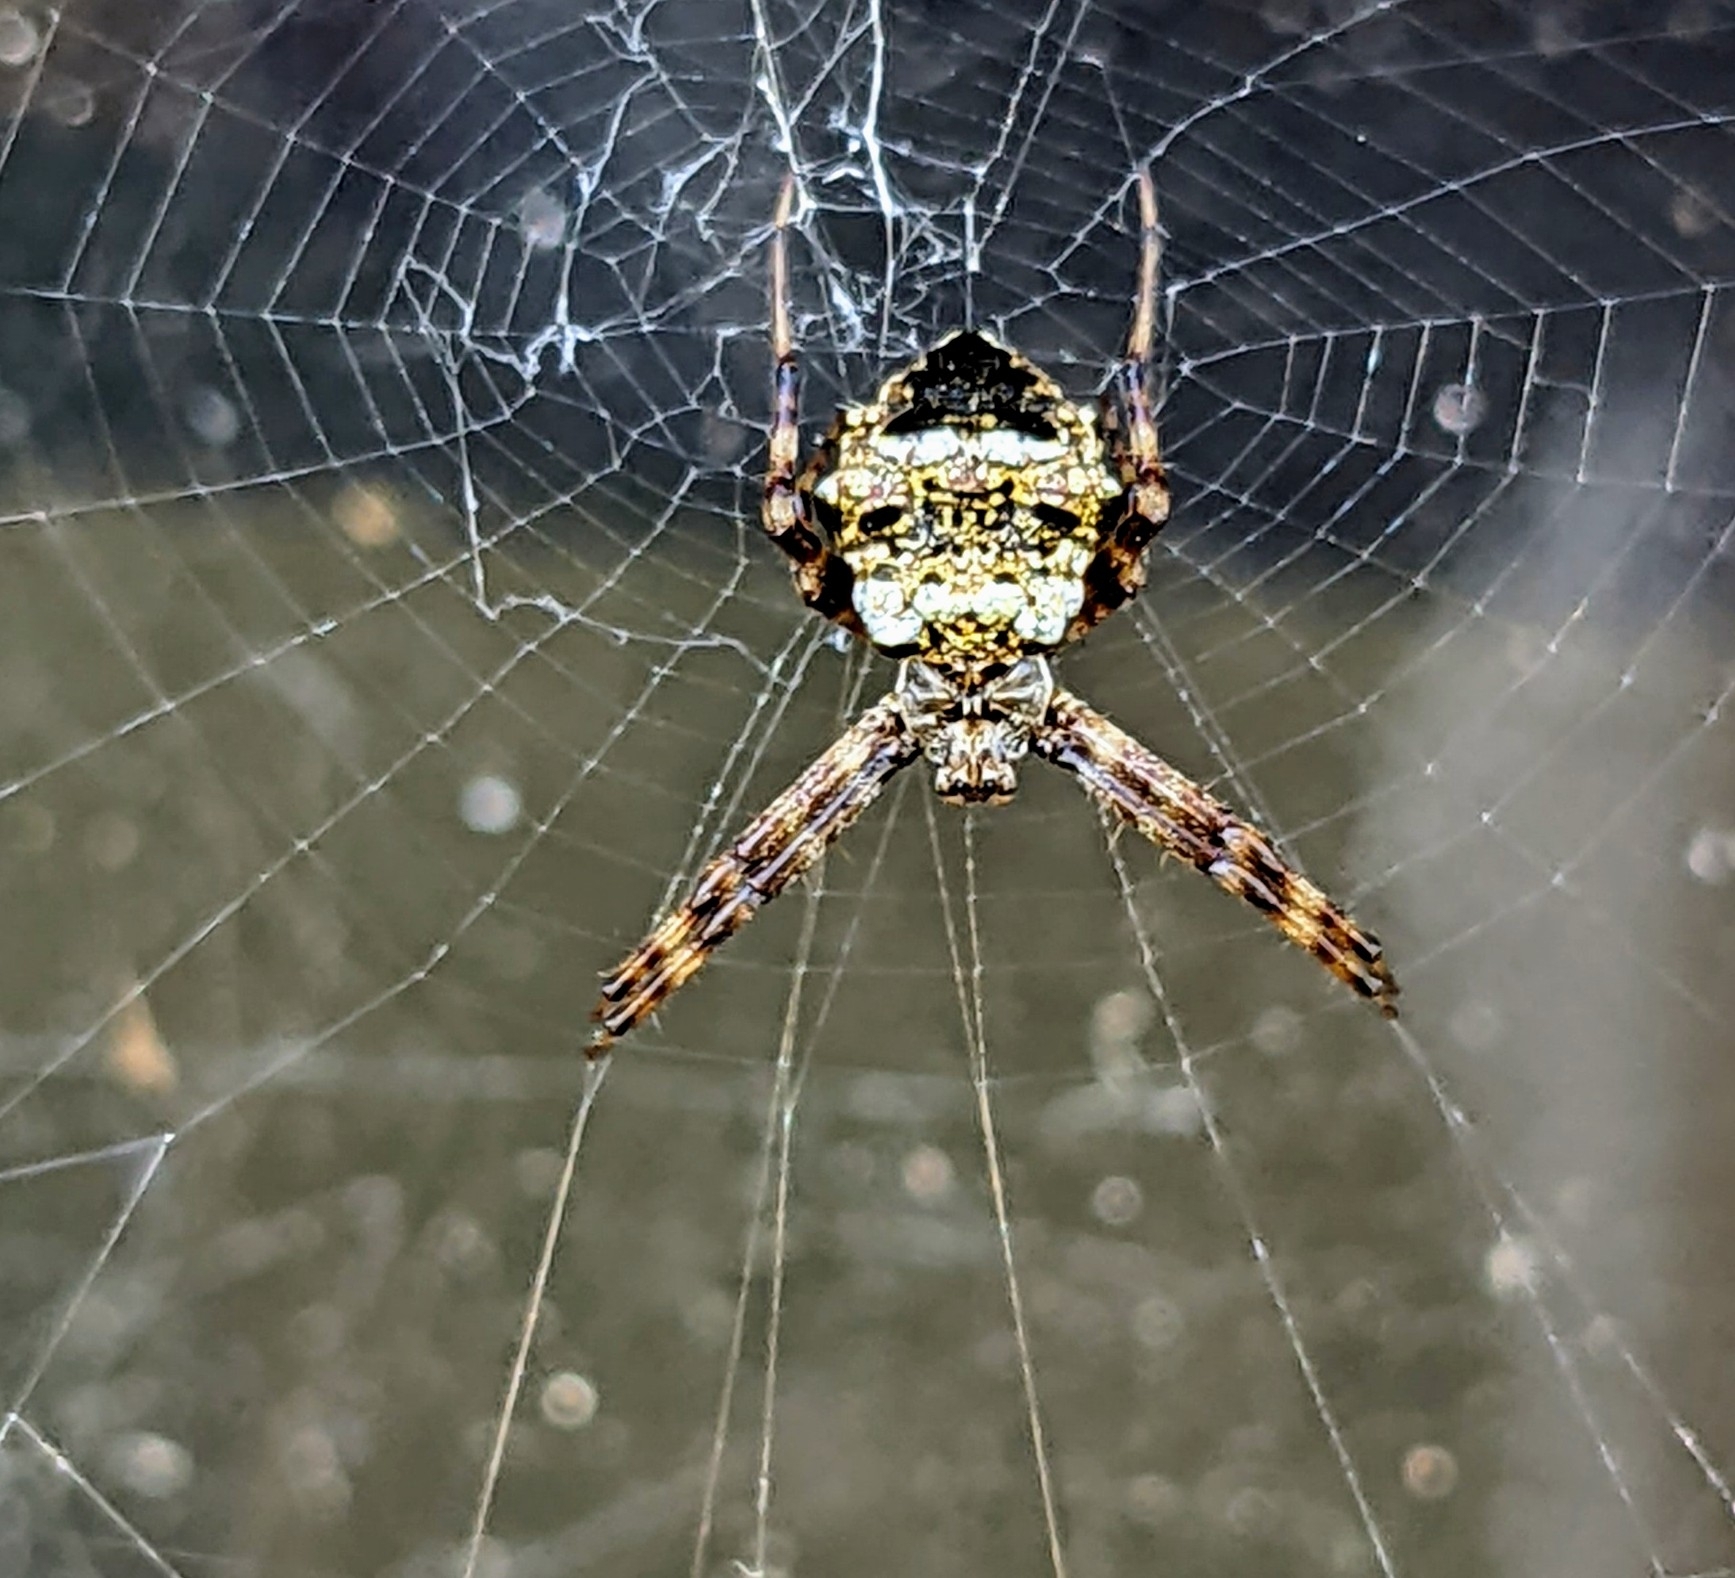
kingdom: Animalia
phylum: Arthropoda
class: Arachnida
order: Araneae
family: Araneidae
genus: Gea
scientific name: Gea heptagon
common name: Orb weavers
